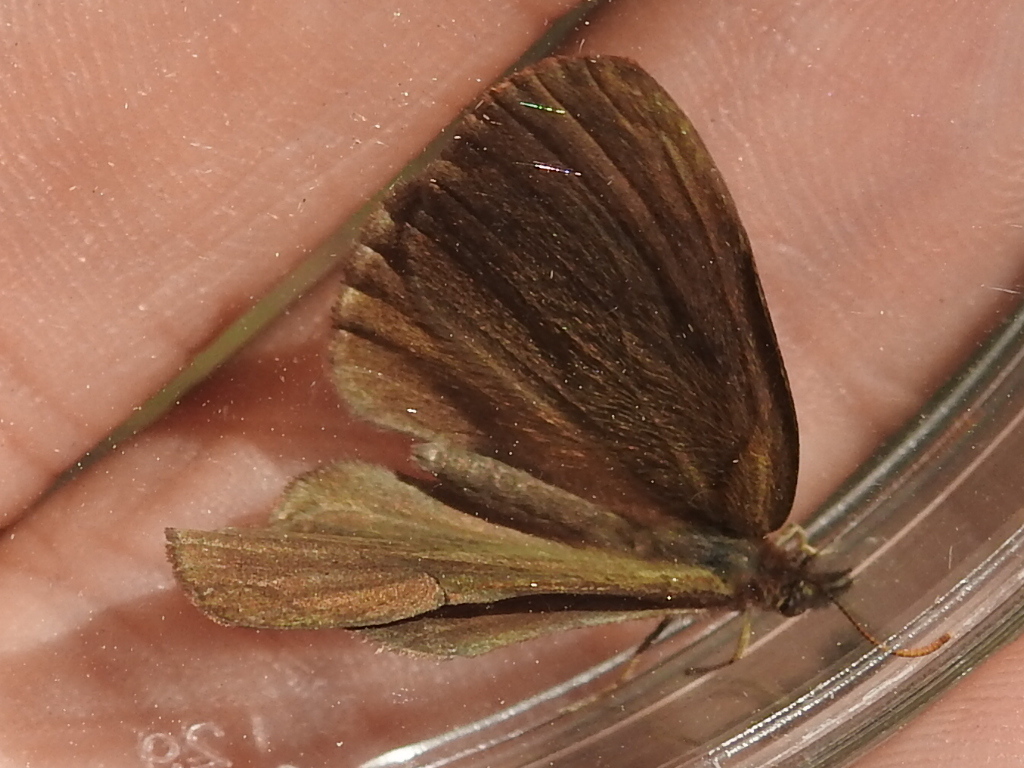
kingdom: Animalia
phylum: Arthropoda
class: Insecta
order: Lepidoptera
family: Nymphalidae
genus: Euptychia
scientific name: Euptychia cornelius
